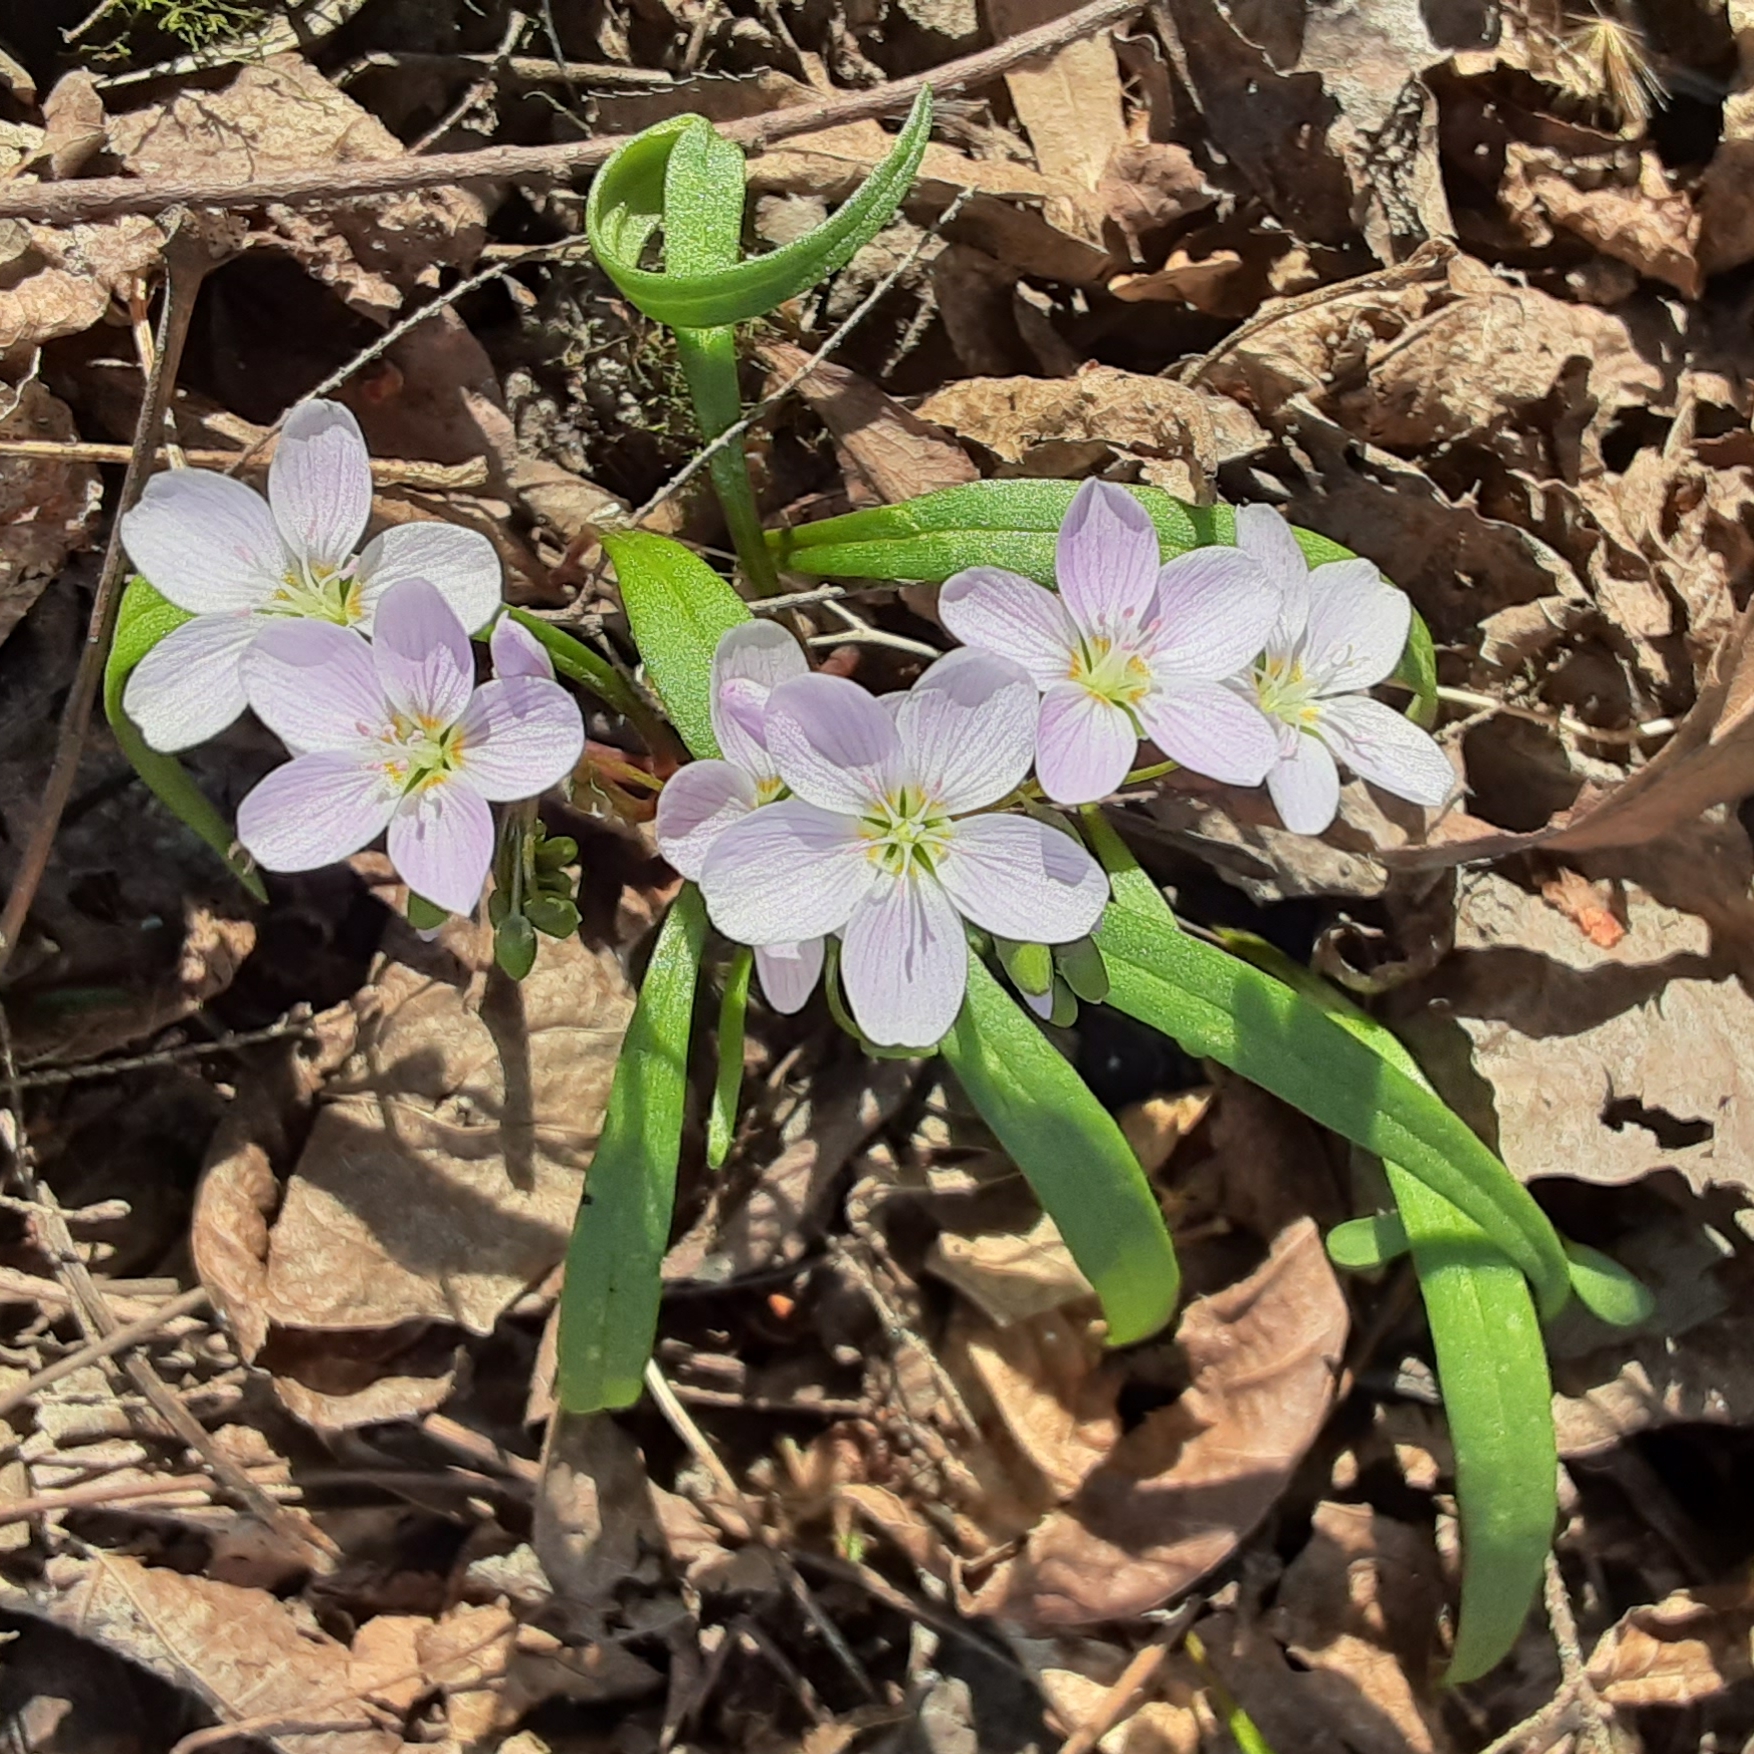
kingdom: Plantae
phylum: Tracheophyta
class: Magnoliopsida
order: Caryophyllales
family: Montiaceae
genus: Claytonia
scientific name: Claytonia virginica
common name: Virginia springbeauty
